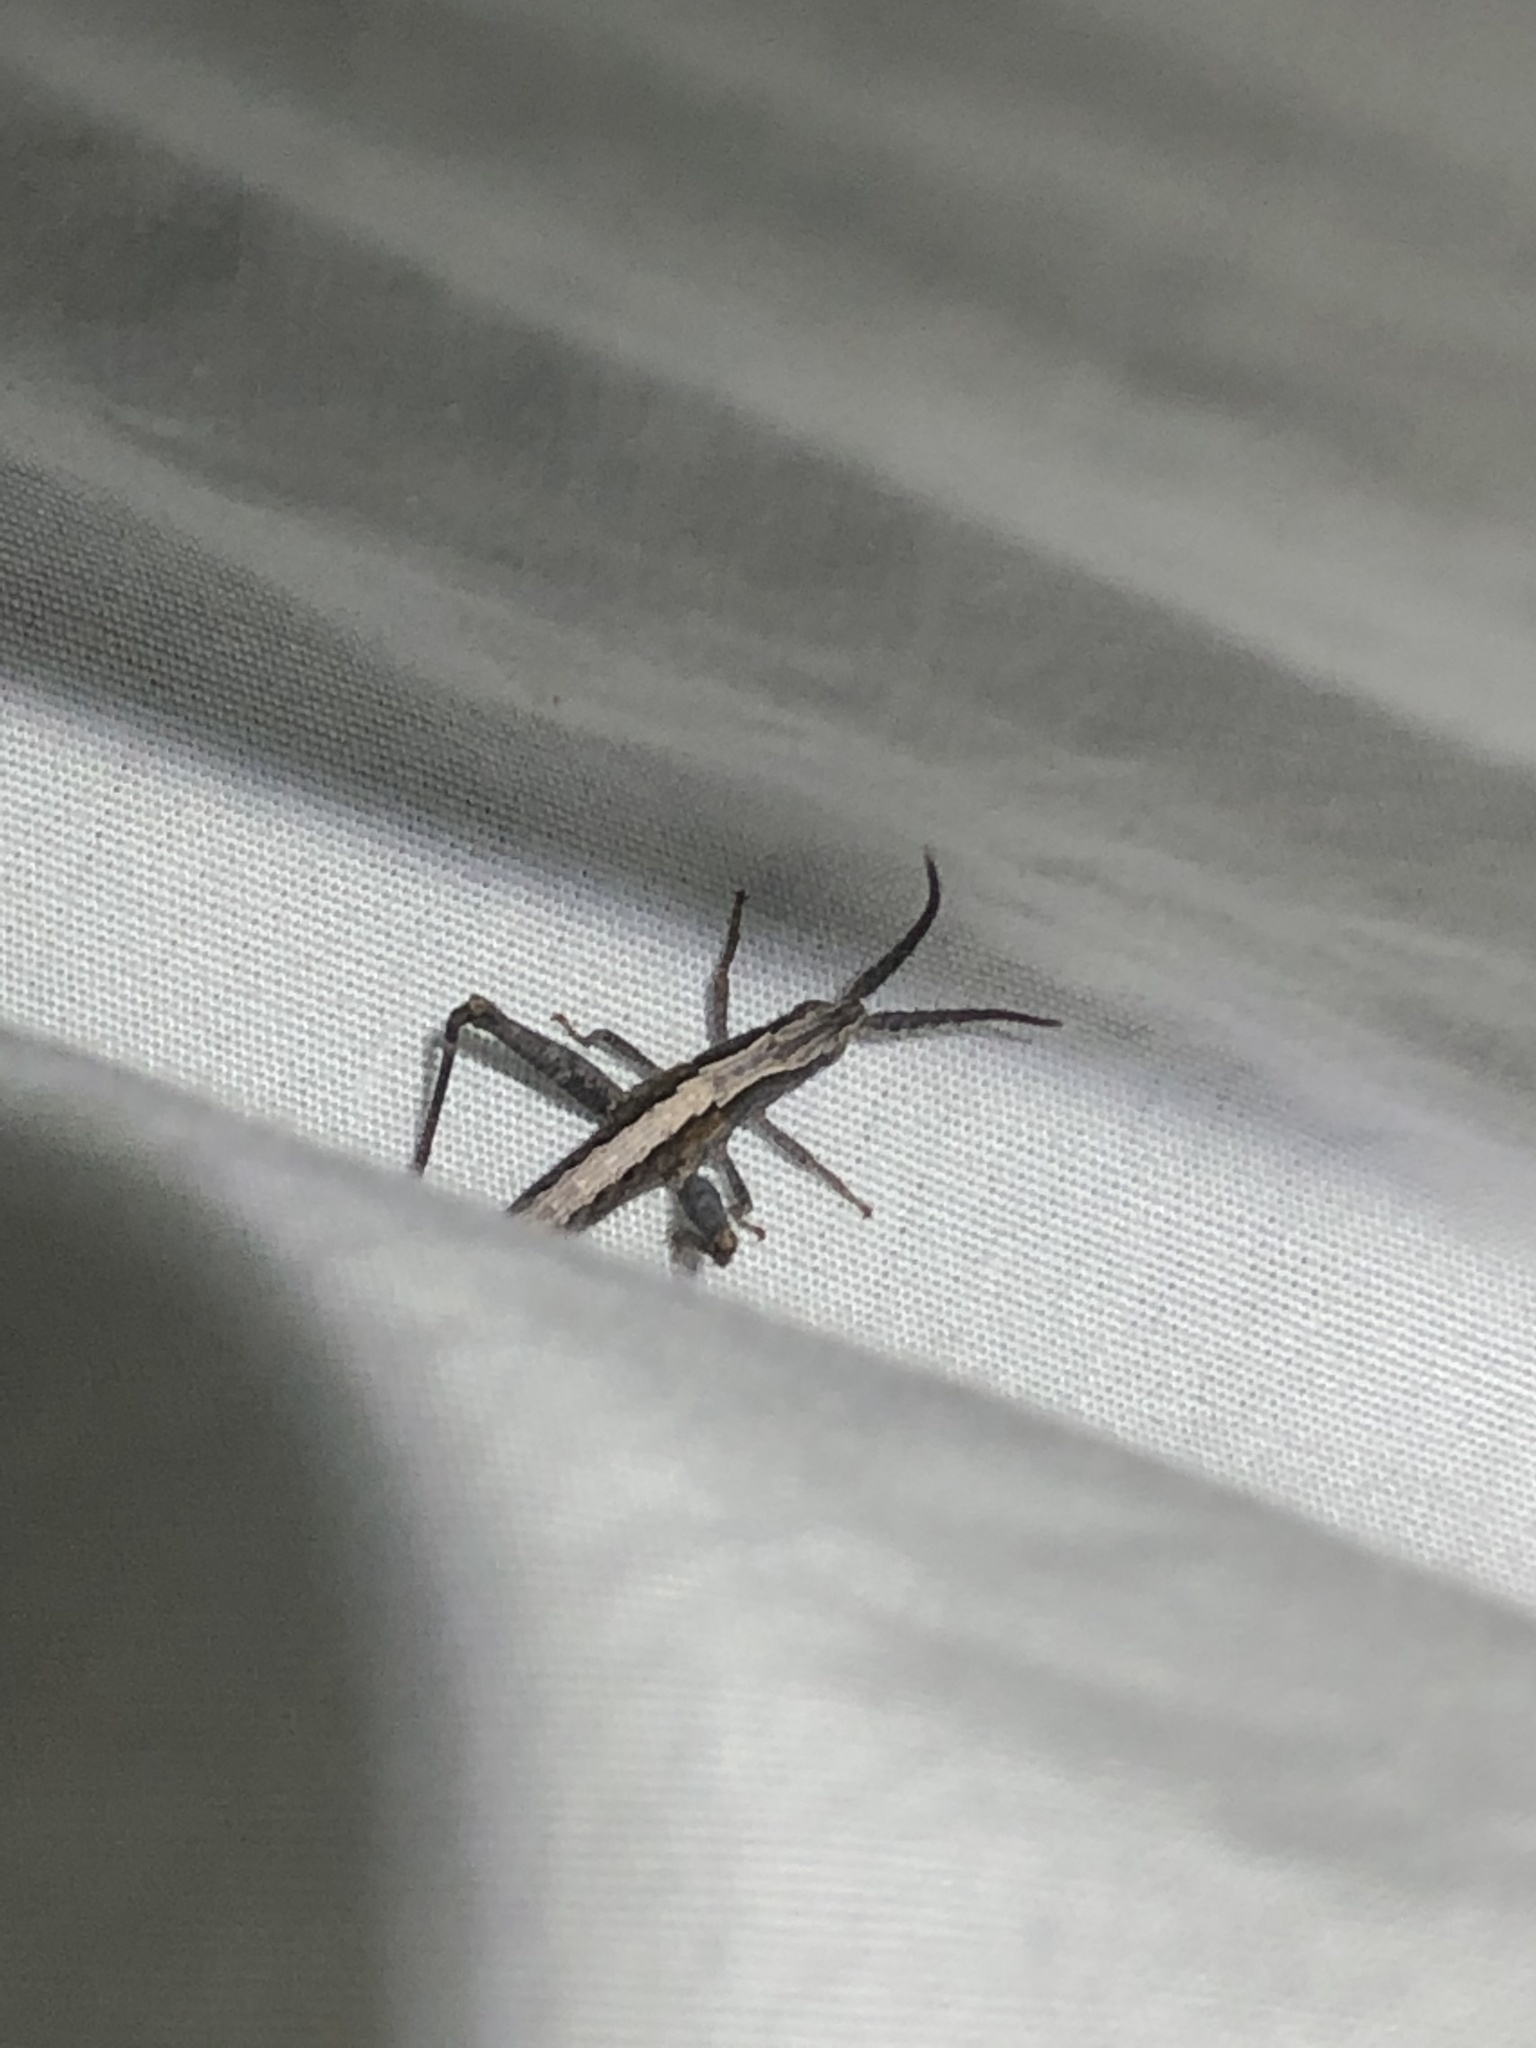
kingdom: Animalia
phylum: Arthropoda
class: Insecta
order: Orthoptera
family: Acrididae
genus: Acantherus
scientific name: Acantherus piperatus
